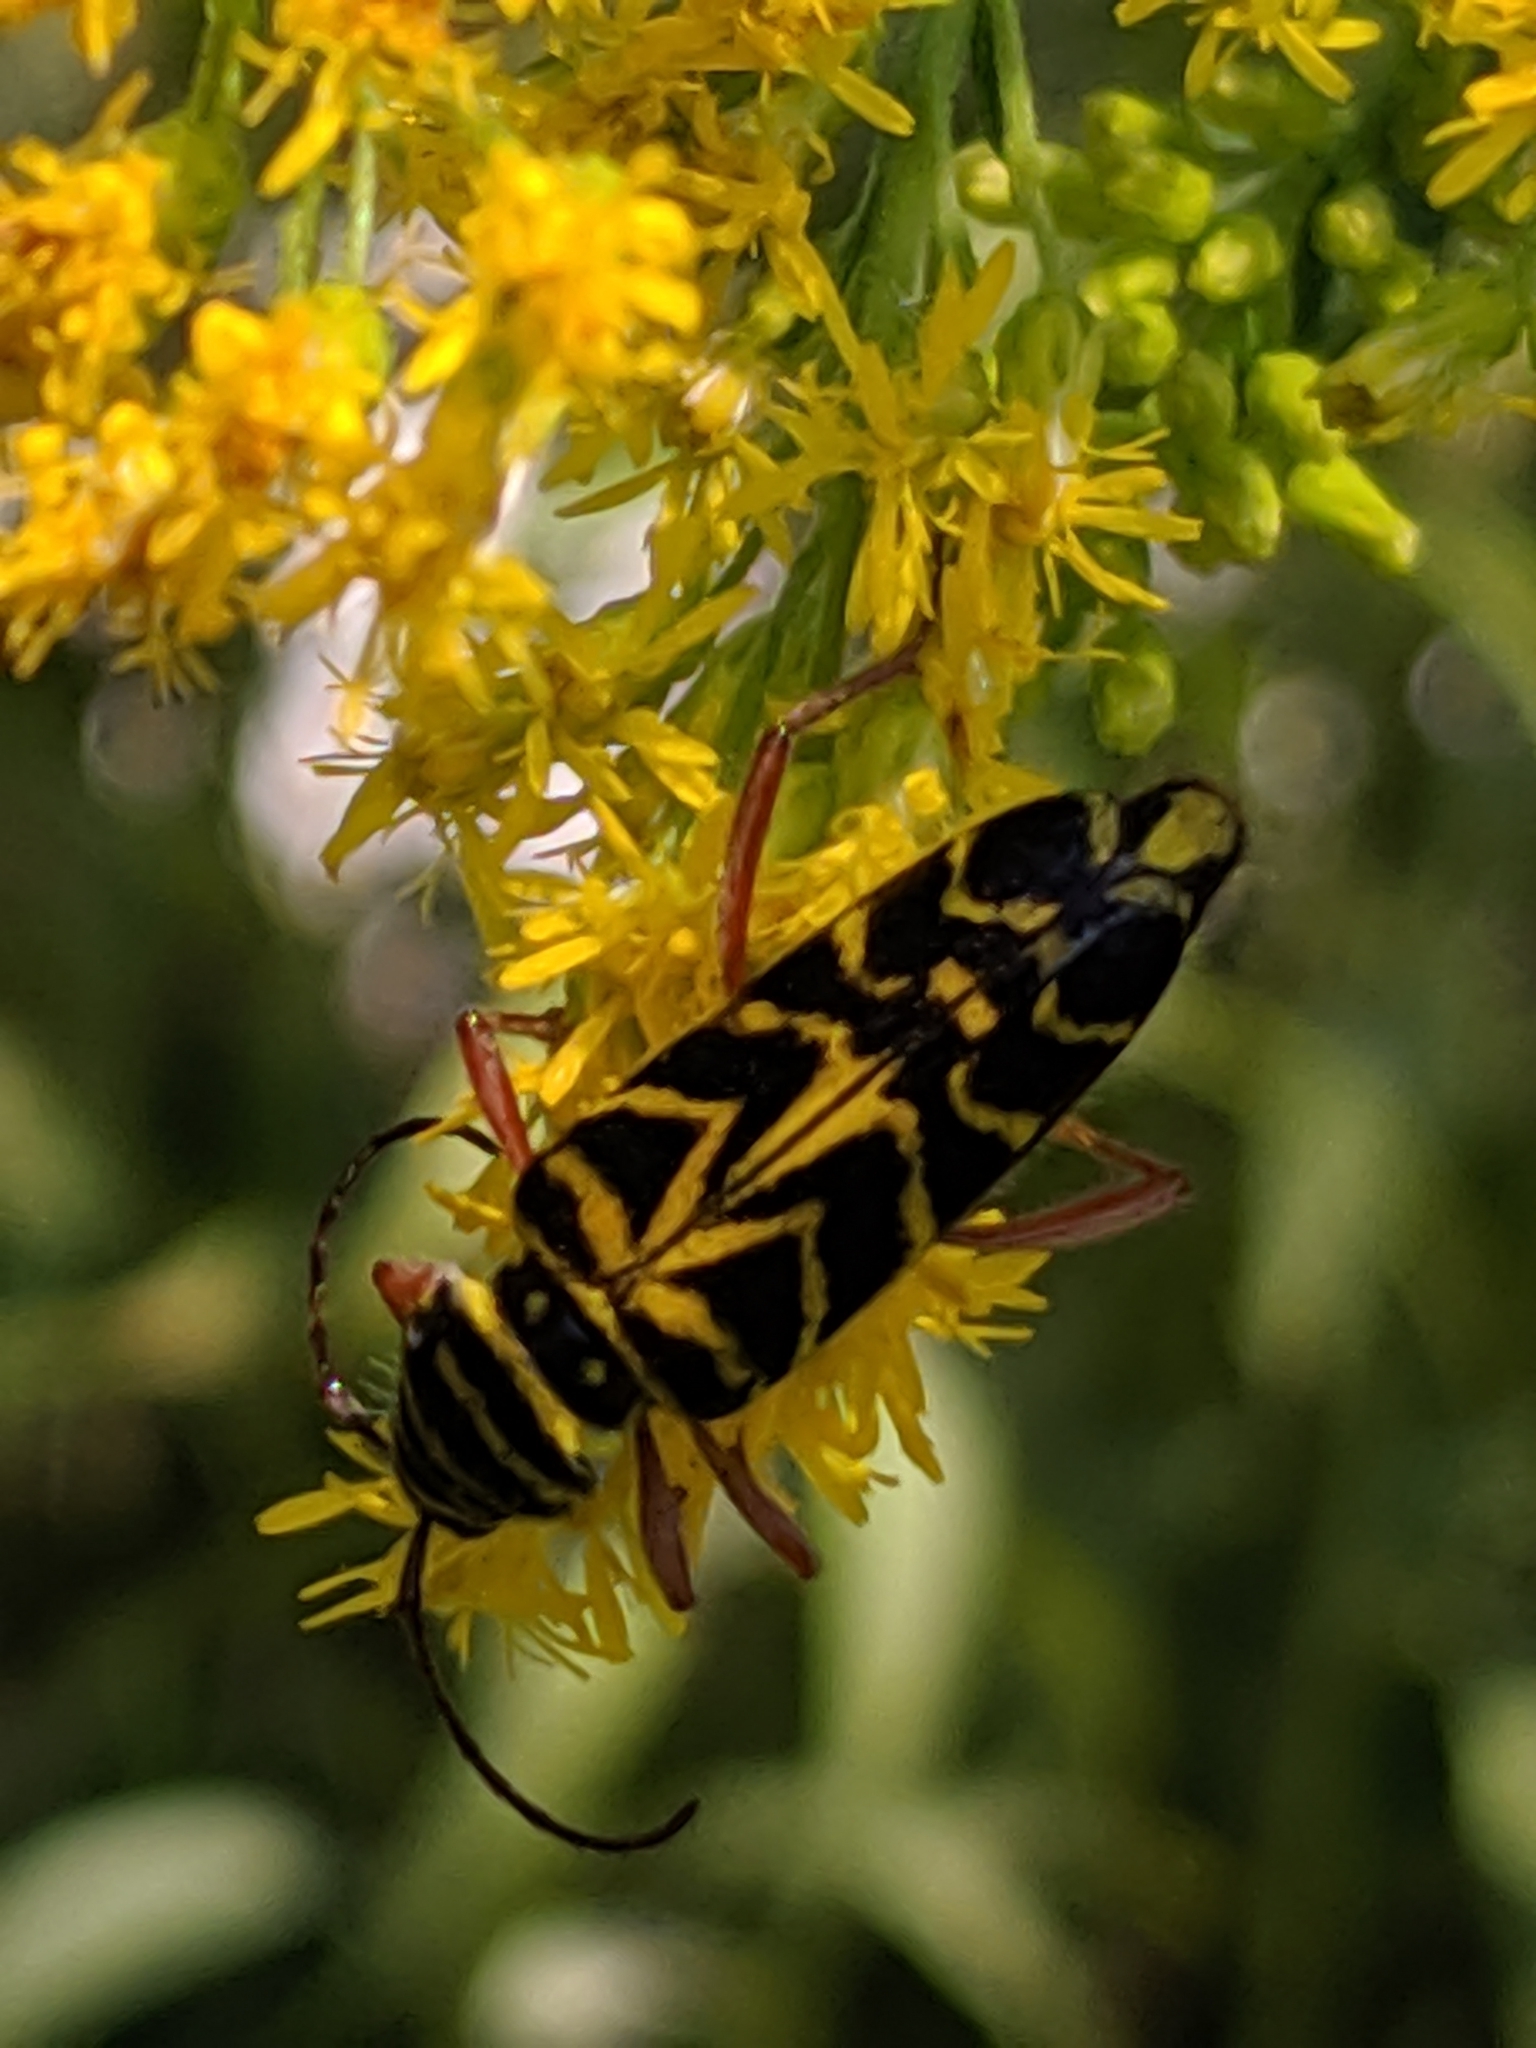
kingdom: Animalia
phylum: Arthropoda
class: Insecta
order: Coleoptera
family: Cerambycidae
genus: Megacyllene
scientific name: Megacyllene robiniae
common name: Locust borer
